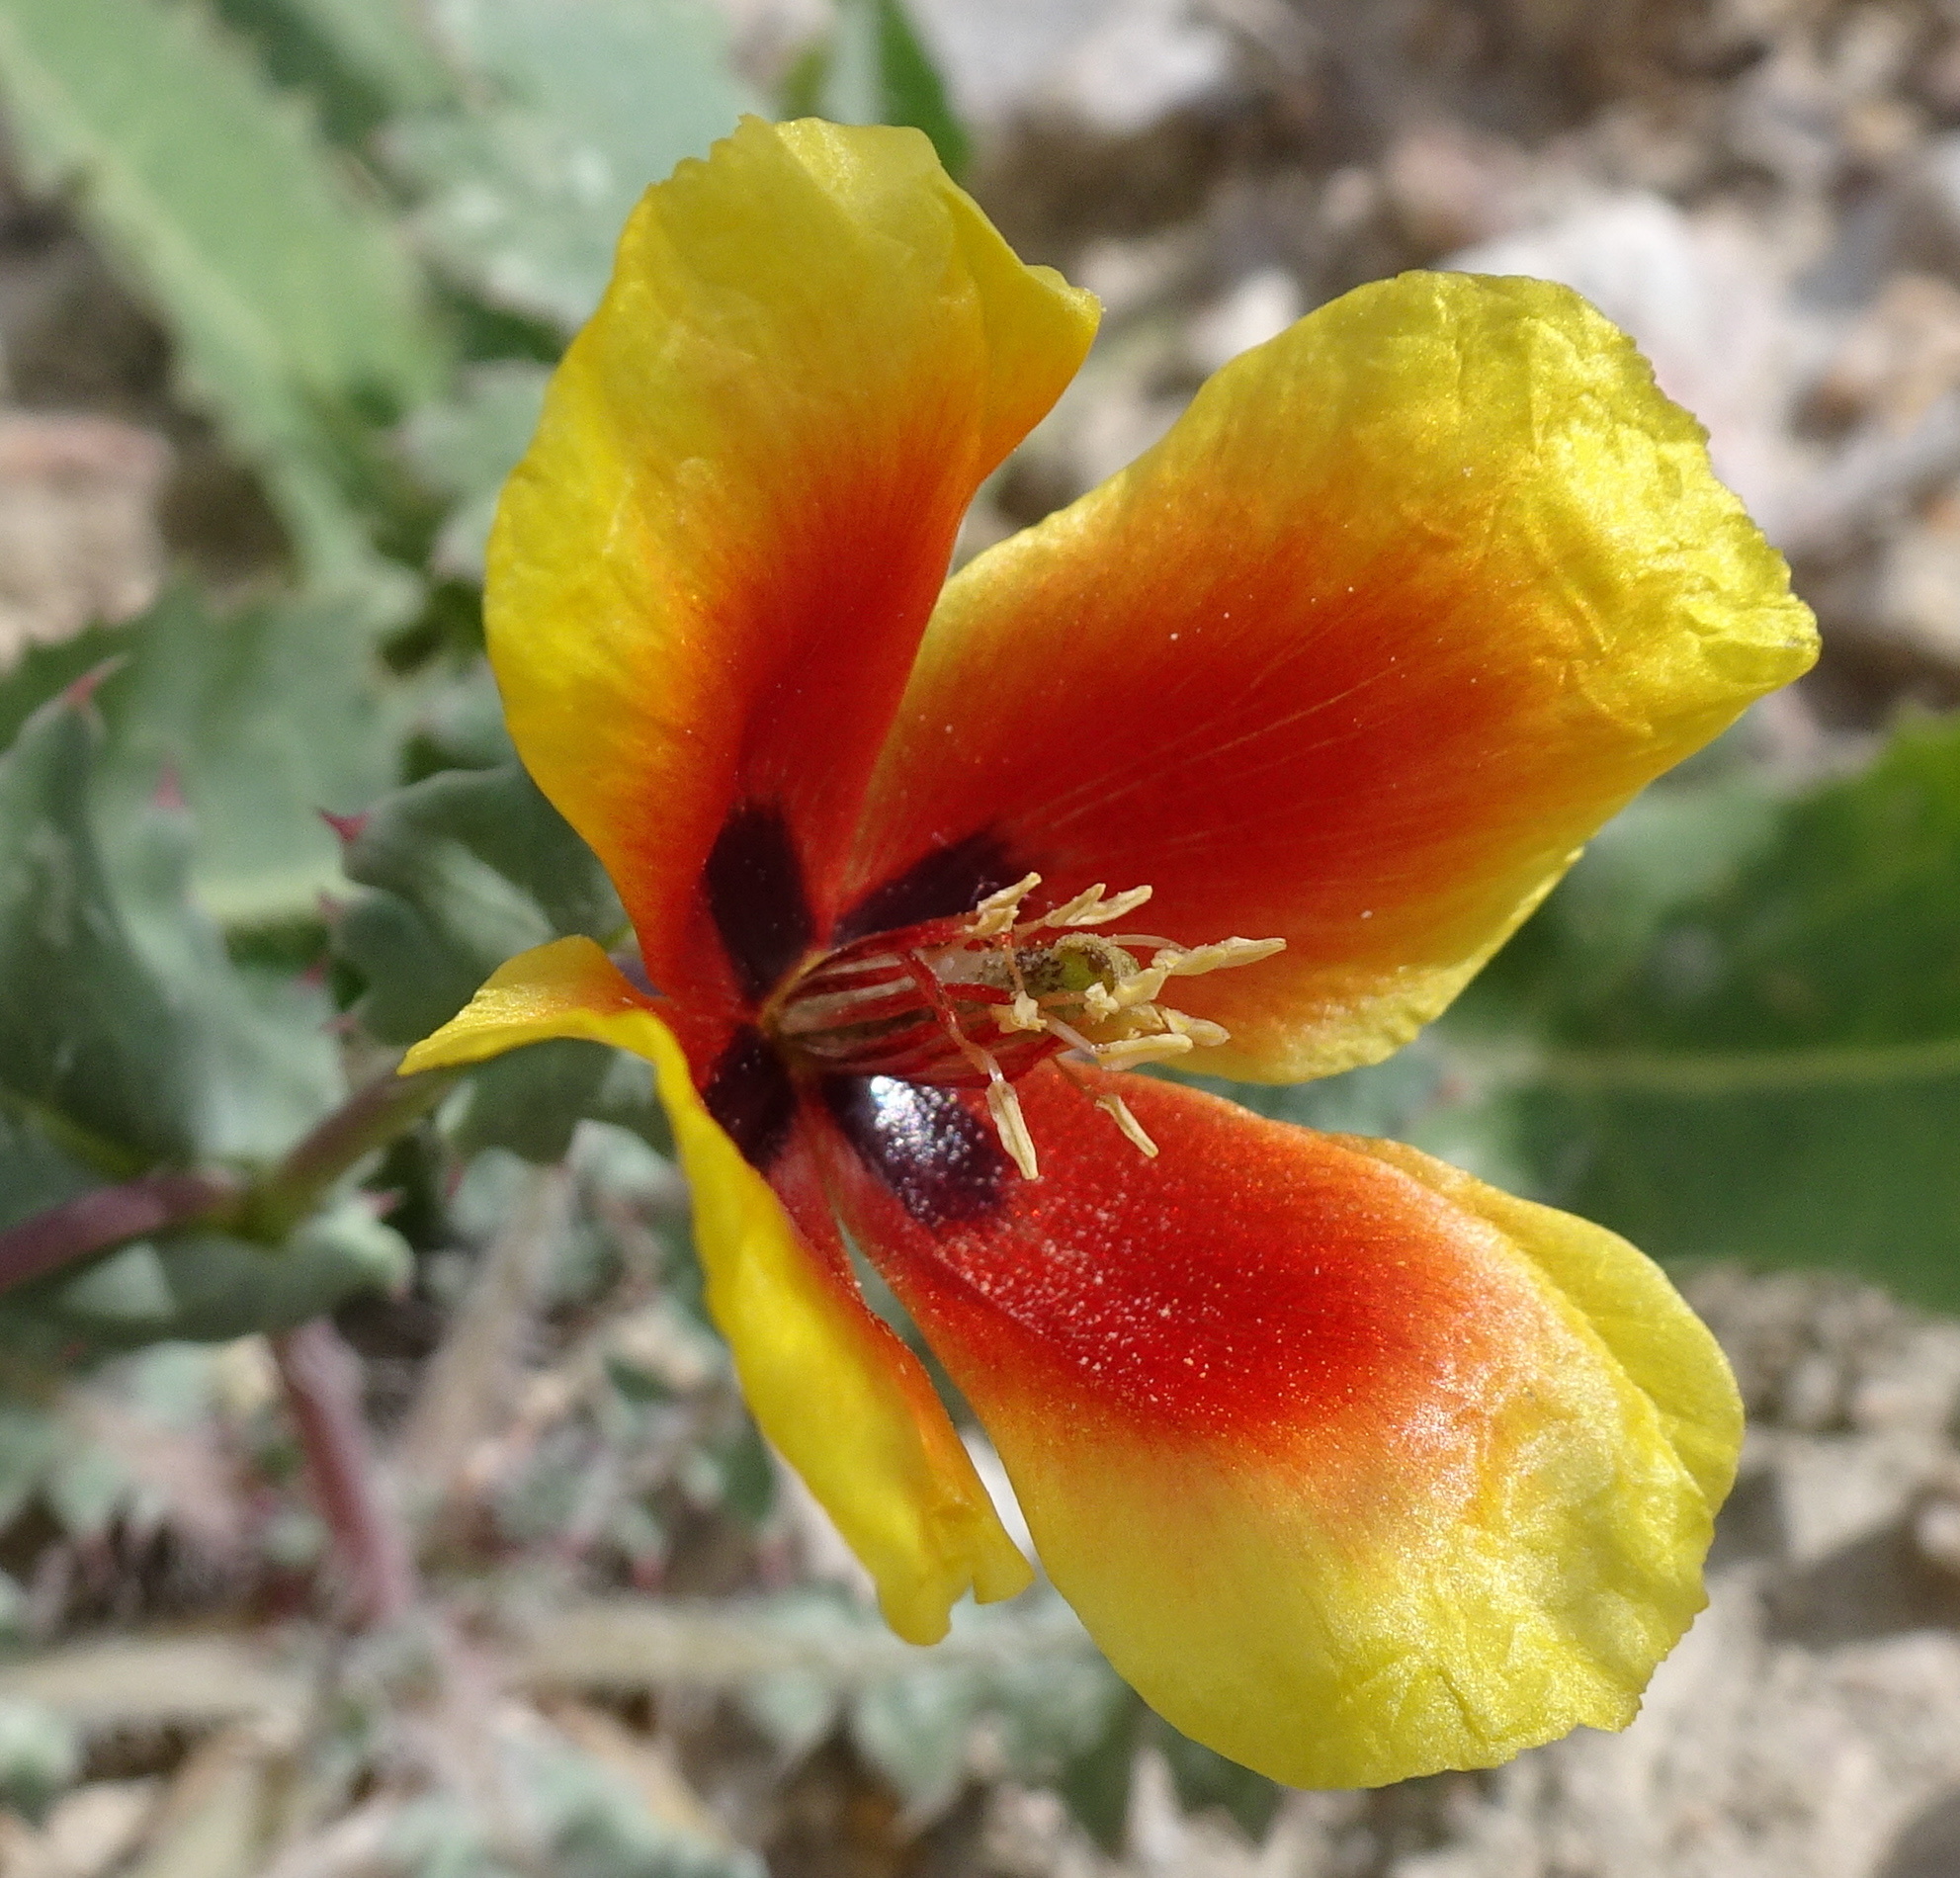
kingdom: Plantae
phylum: Tracheophyta
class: Magnoliopsida
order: Ranunculales
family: Papaveraceae
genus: Glaucium
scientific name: Glaucium elegans
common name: Annual horned-poppy
